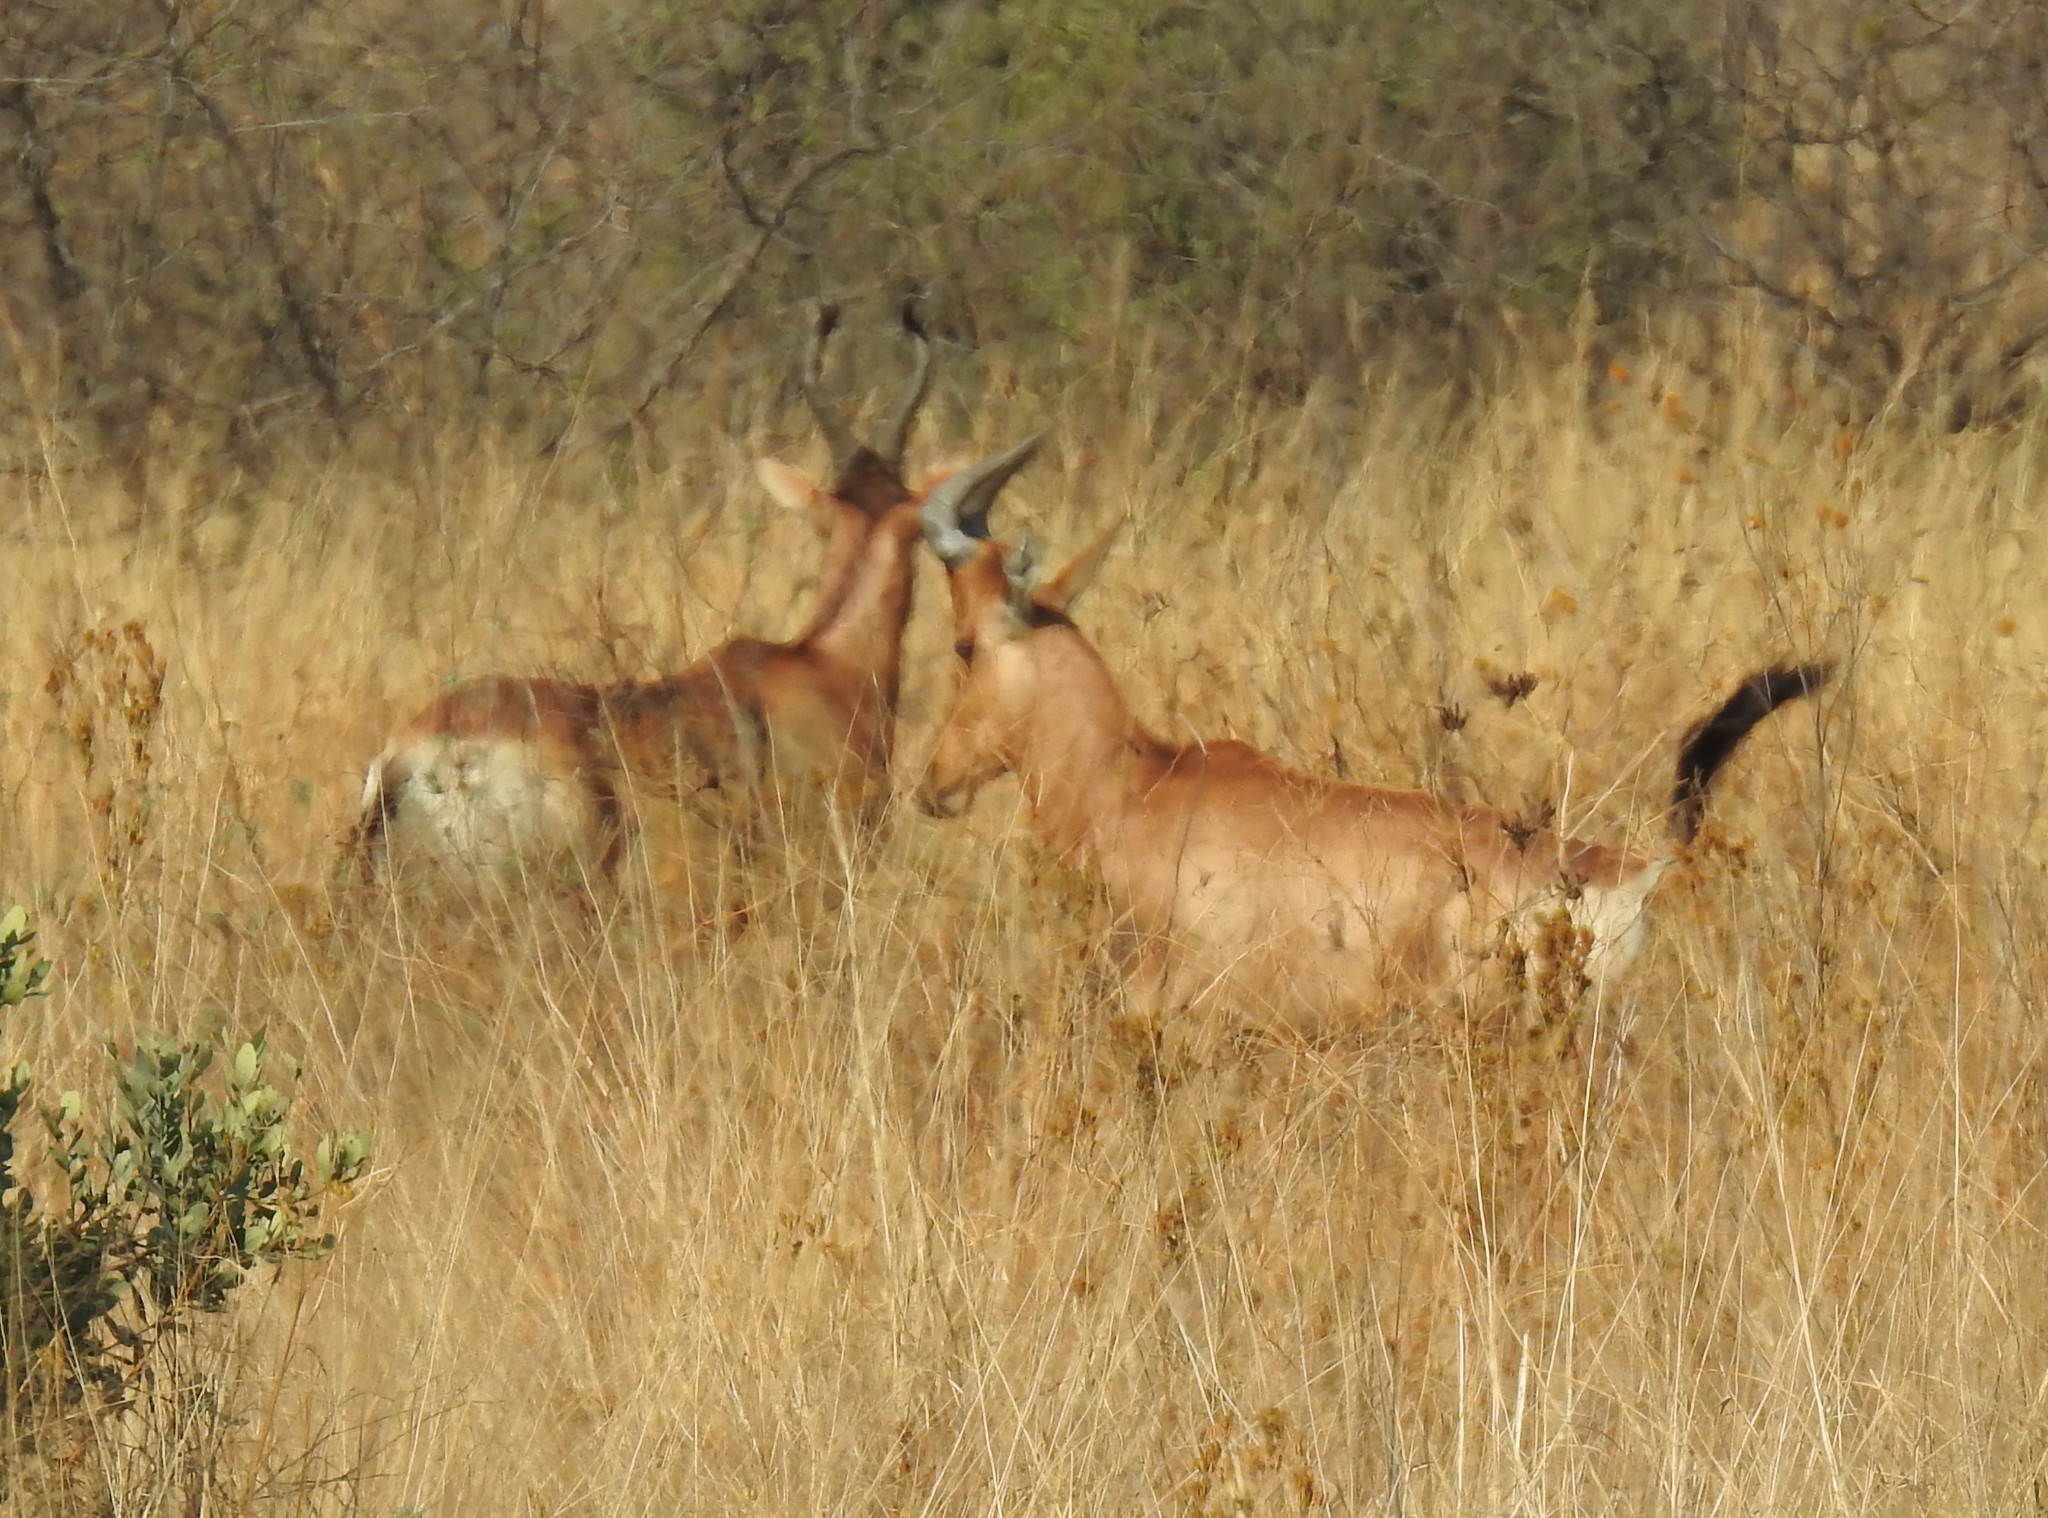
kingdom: Animalia
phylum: Chordata
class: Mammalia
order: Artiodactyla
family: Bovidae
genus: Alcelaphus
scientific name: Alcelaphus caama
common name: Red hartebeest
